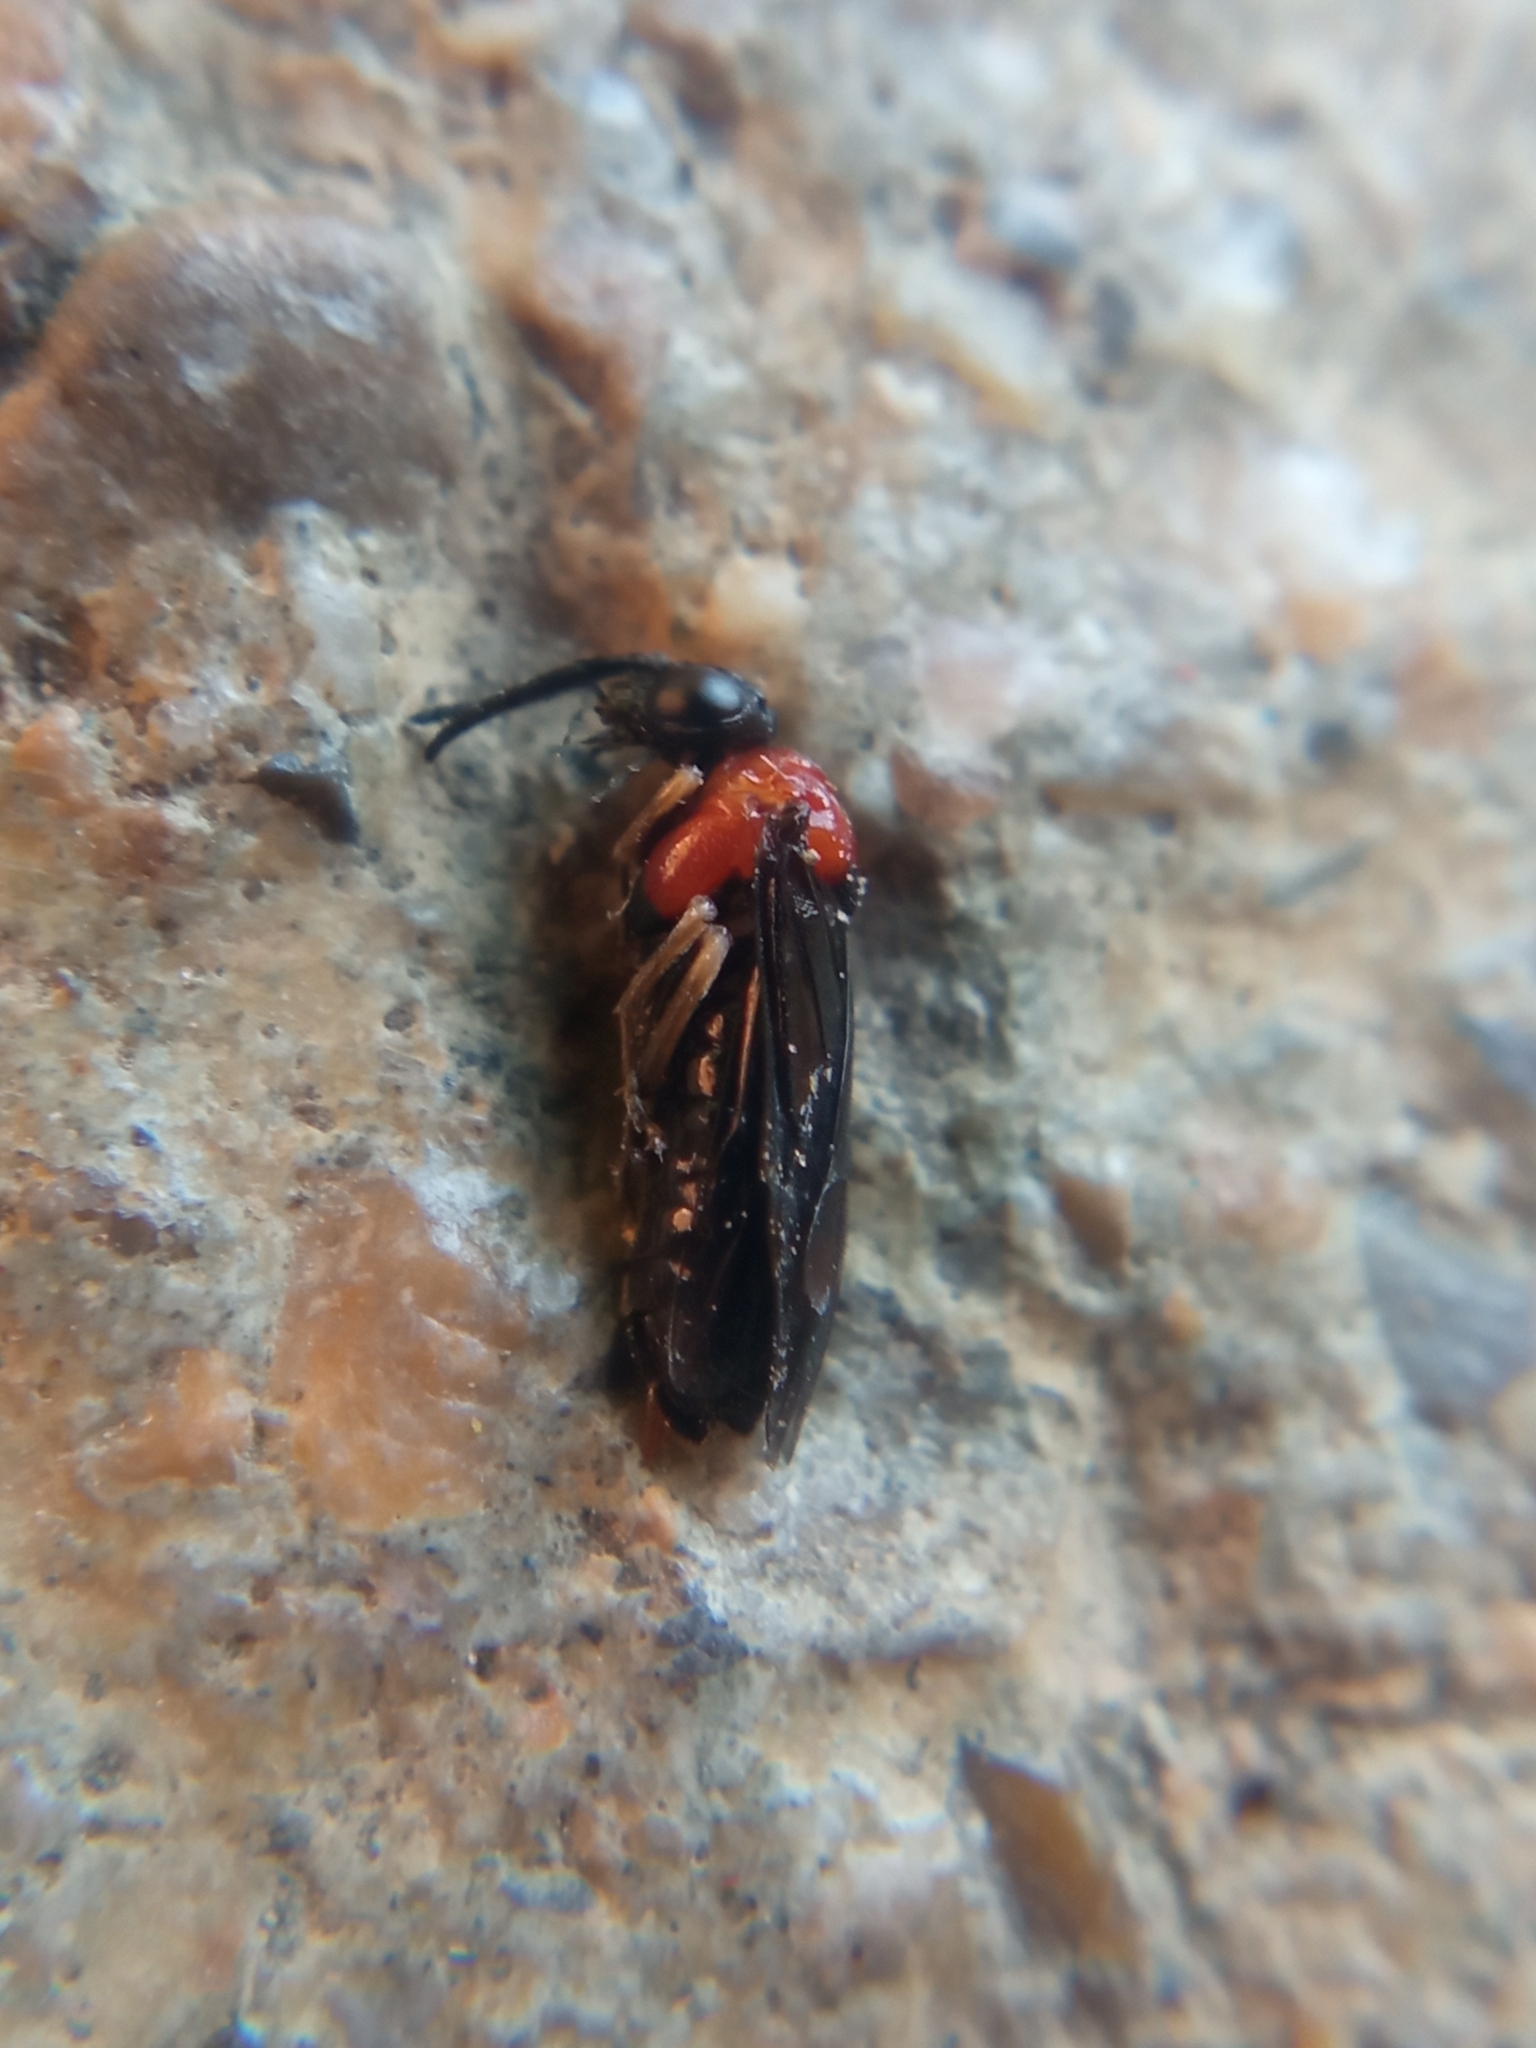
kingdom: Animalia
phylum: Arthropoda
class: Insecta
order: Hymenoptera
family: Tenthredinidae
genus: Eutomostethus
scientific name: Eutomostethus ephippium
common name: Tenthredid wasp
